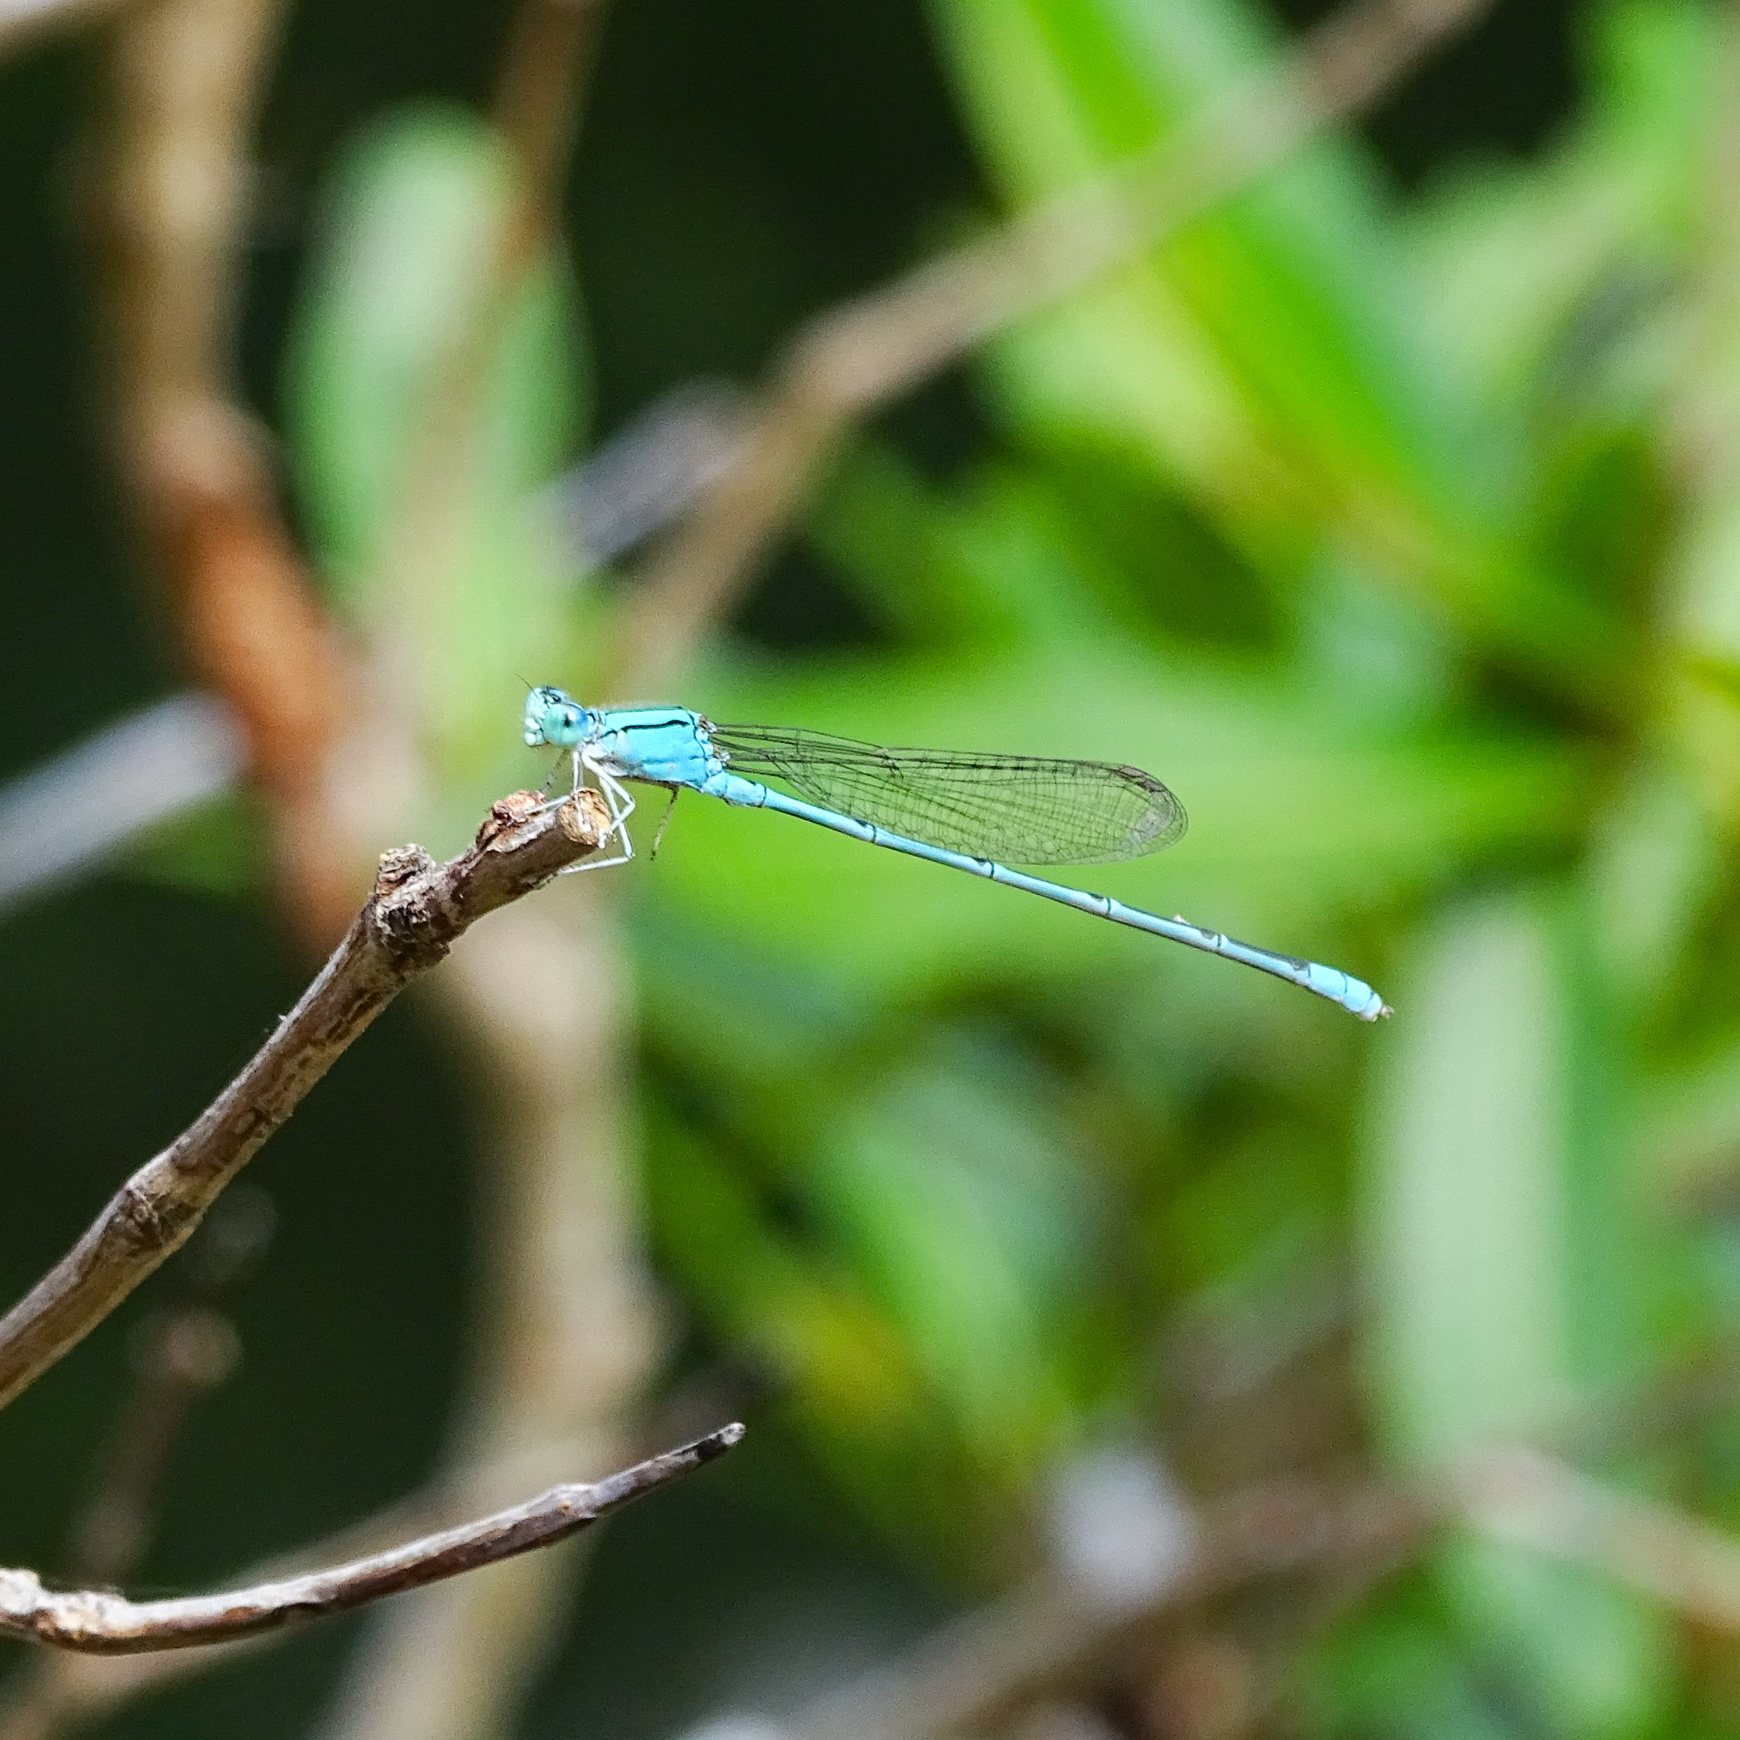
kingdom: Animalia
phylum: Arthropoda
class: Insecta
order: Odonata
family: Coenagrionidae
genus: Pseudagrion
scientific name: Pseudagrion decorum
